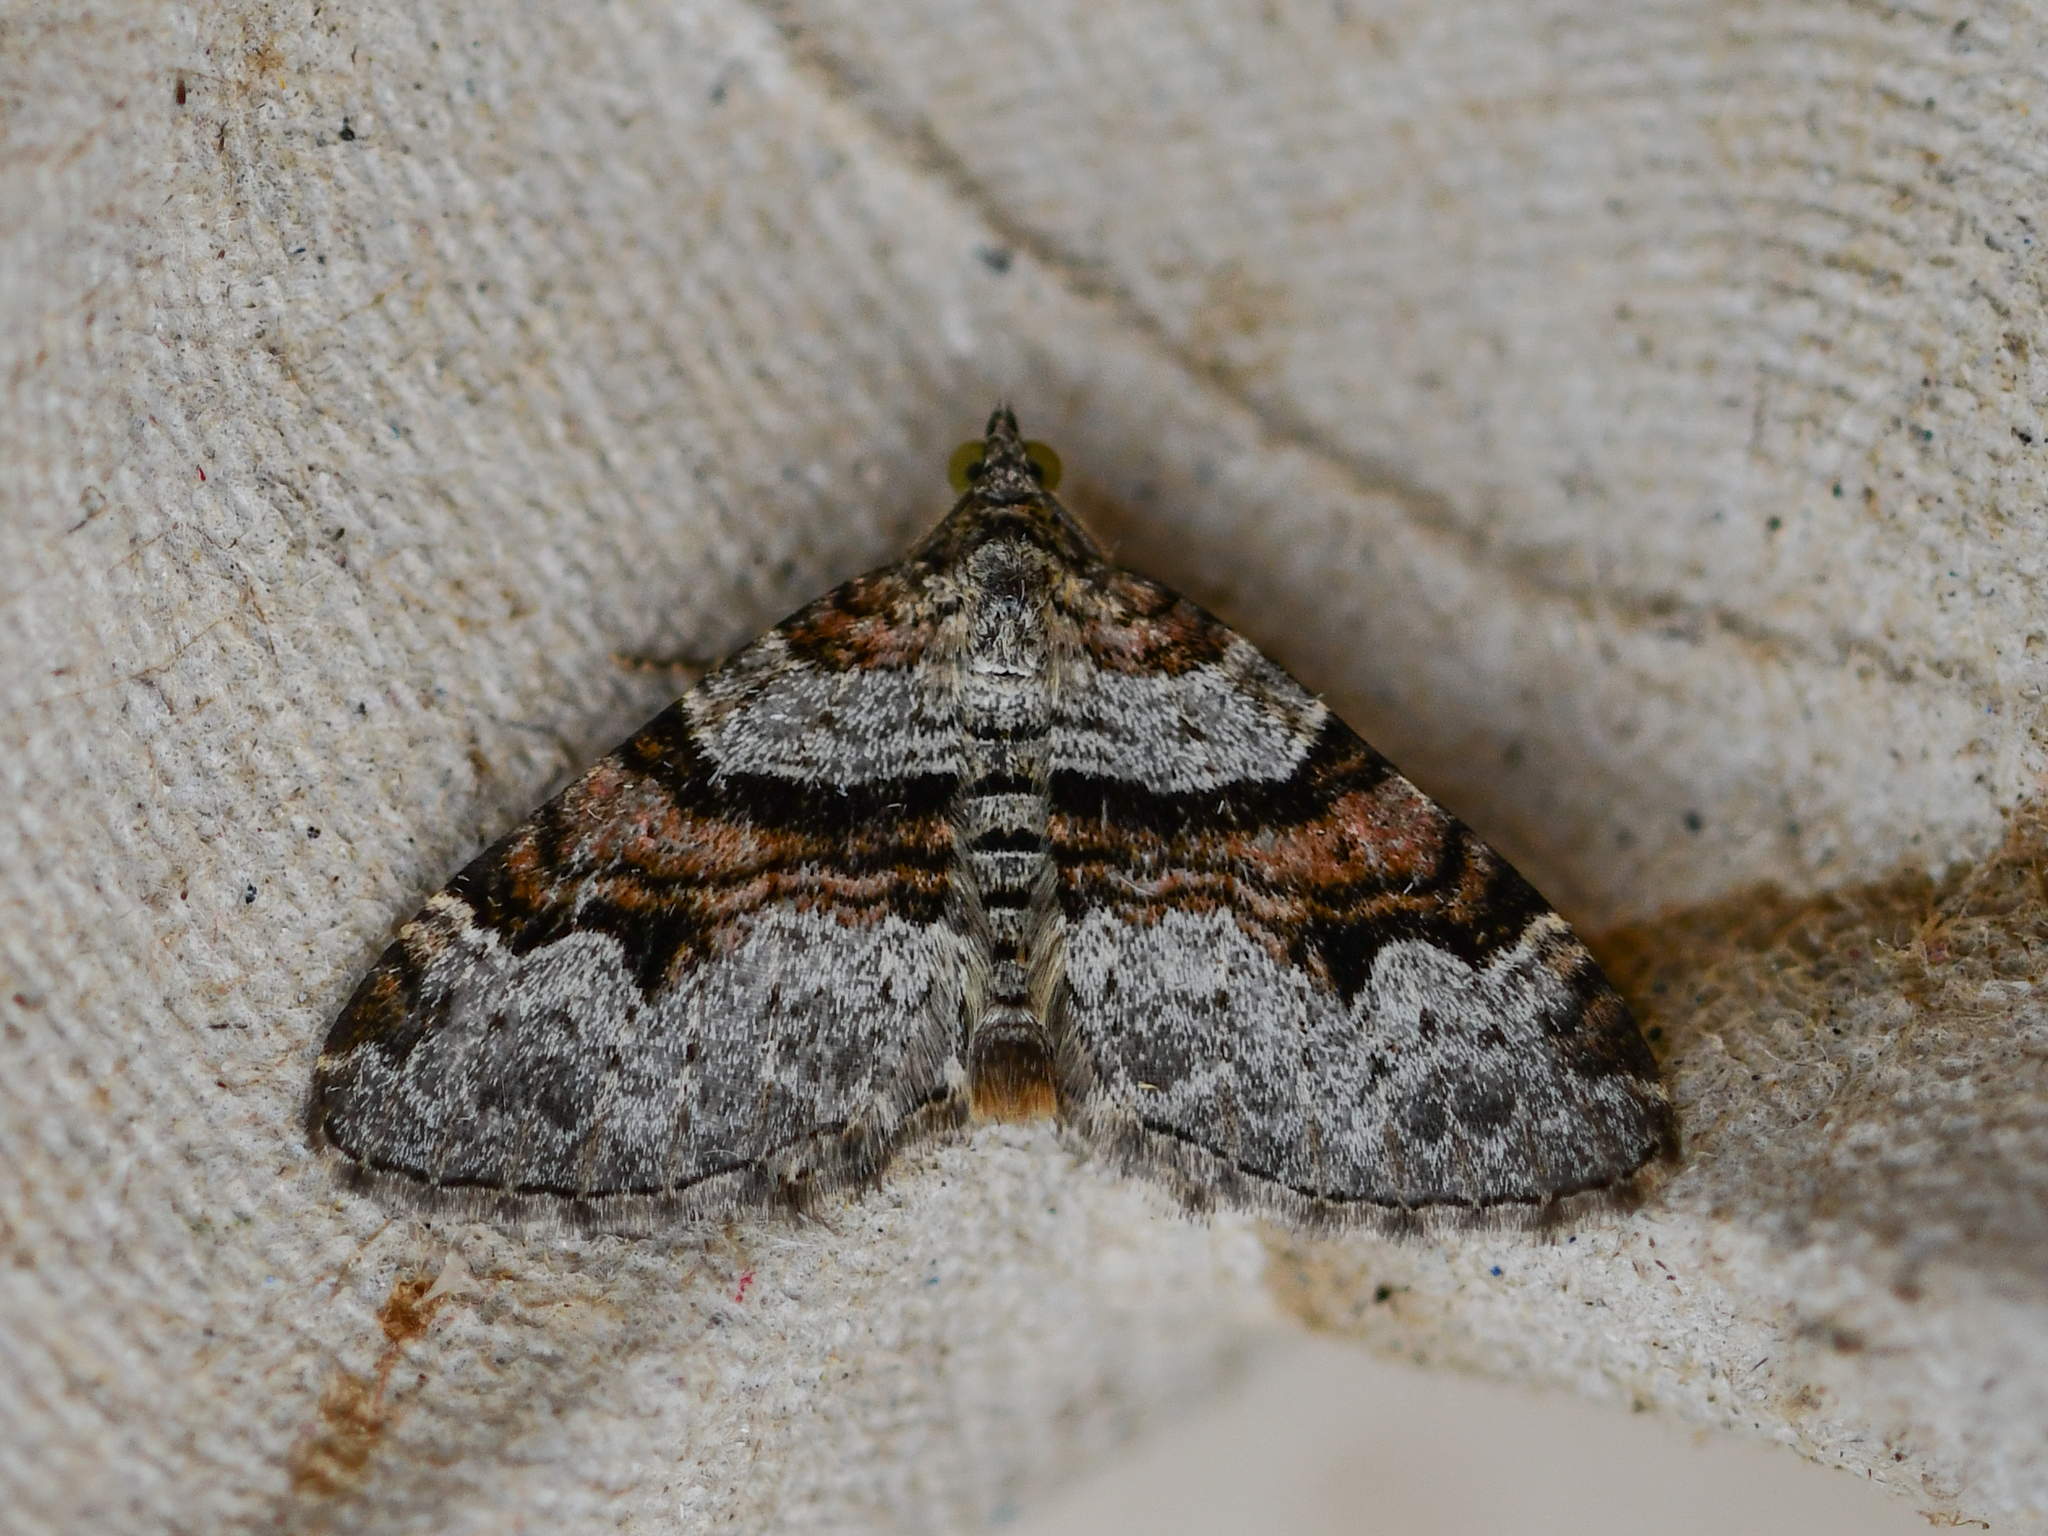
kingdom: Animalia
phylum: Arthropoda
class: Insecta
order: Lepidoptera
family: Geometridae
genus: Xanthorhoe
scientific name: Xanthorhoe designata
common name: Flame carpet
